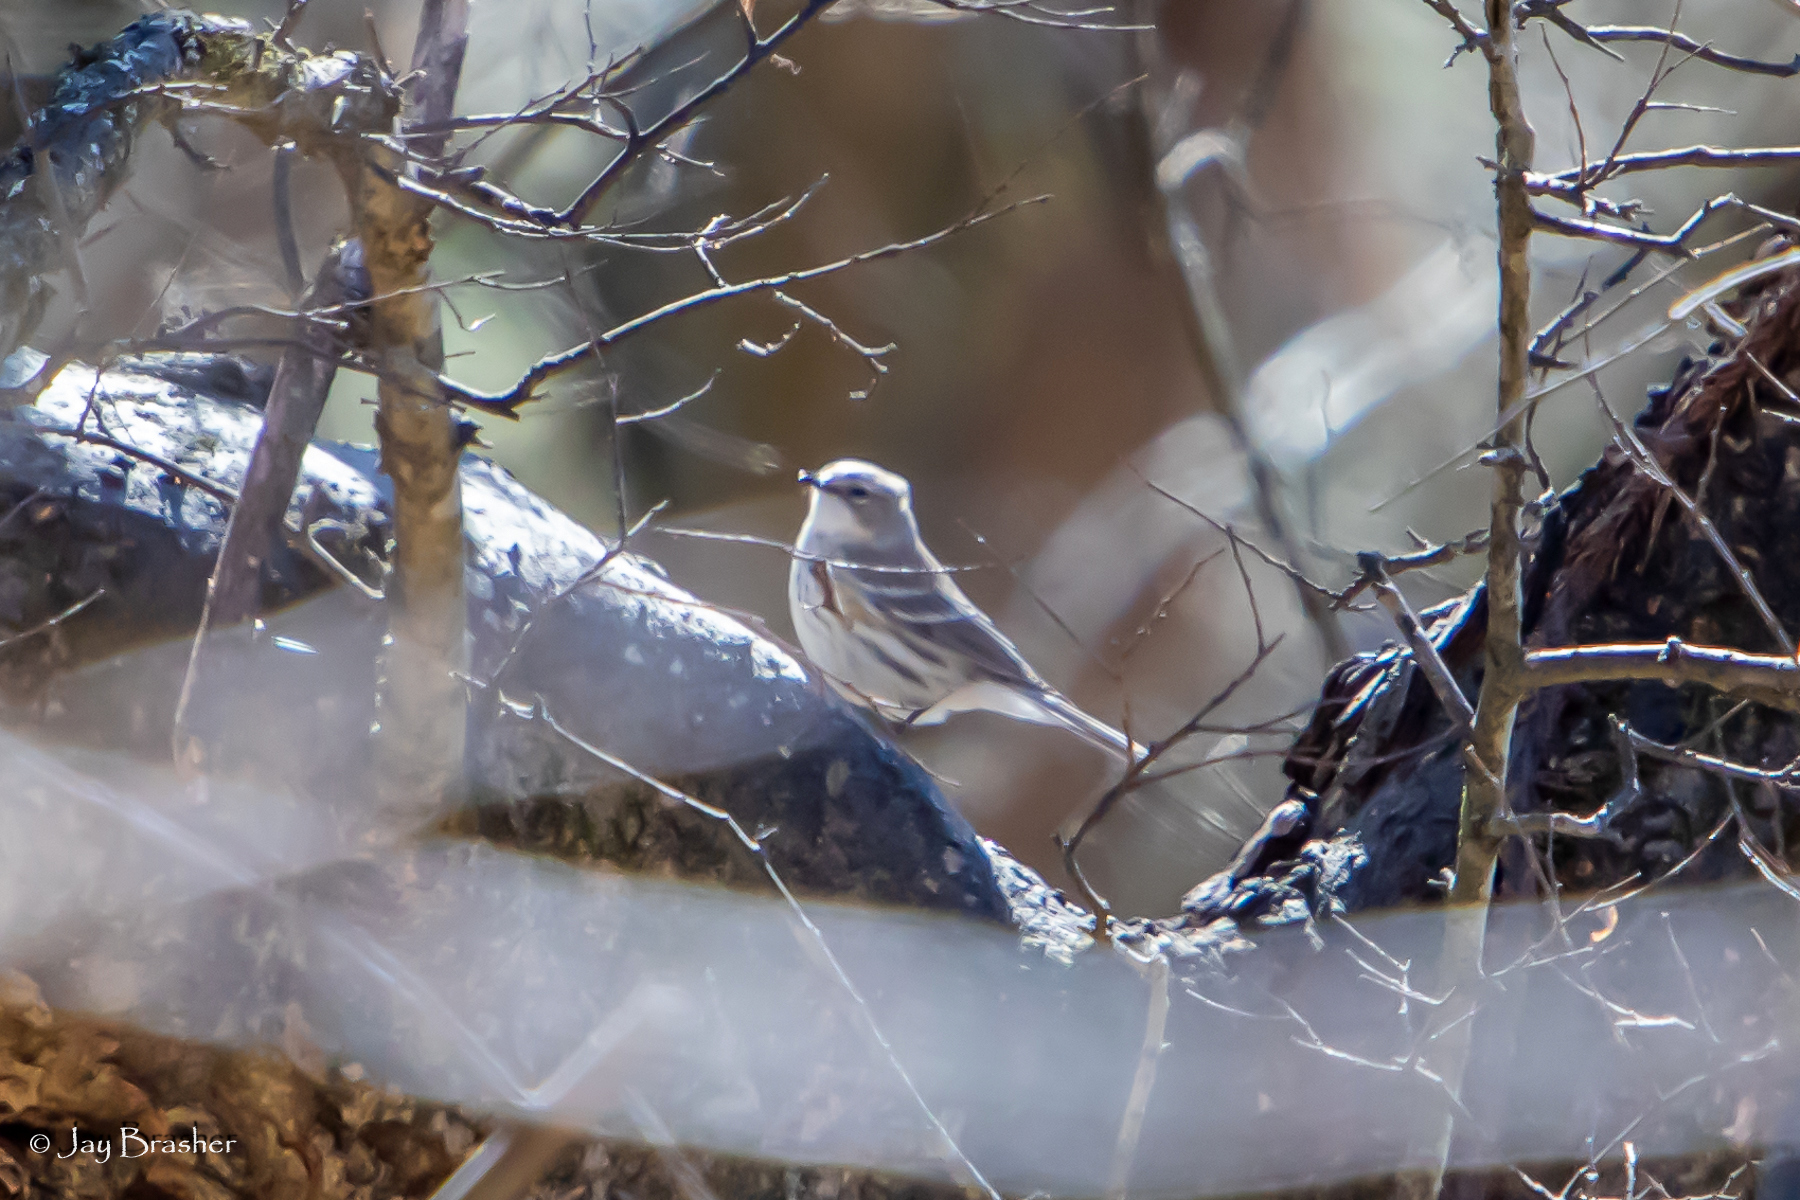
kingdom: Animalia
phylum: Chordata
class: Aves
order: Passeriformes
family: Parulidae
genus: Setophaga
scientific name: Setophaga coronata
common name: Myrtle warbler
